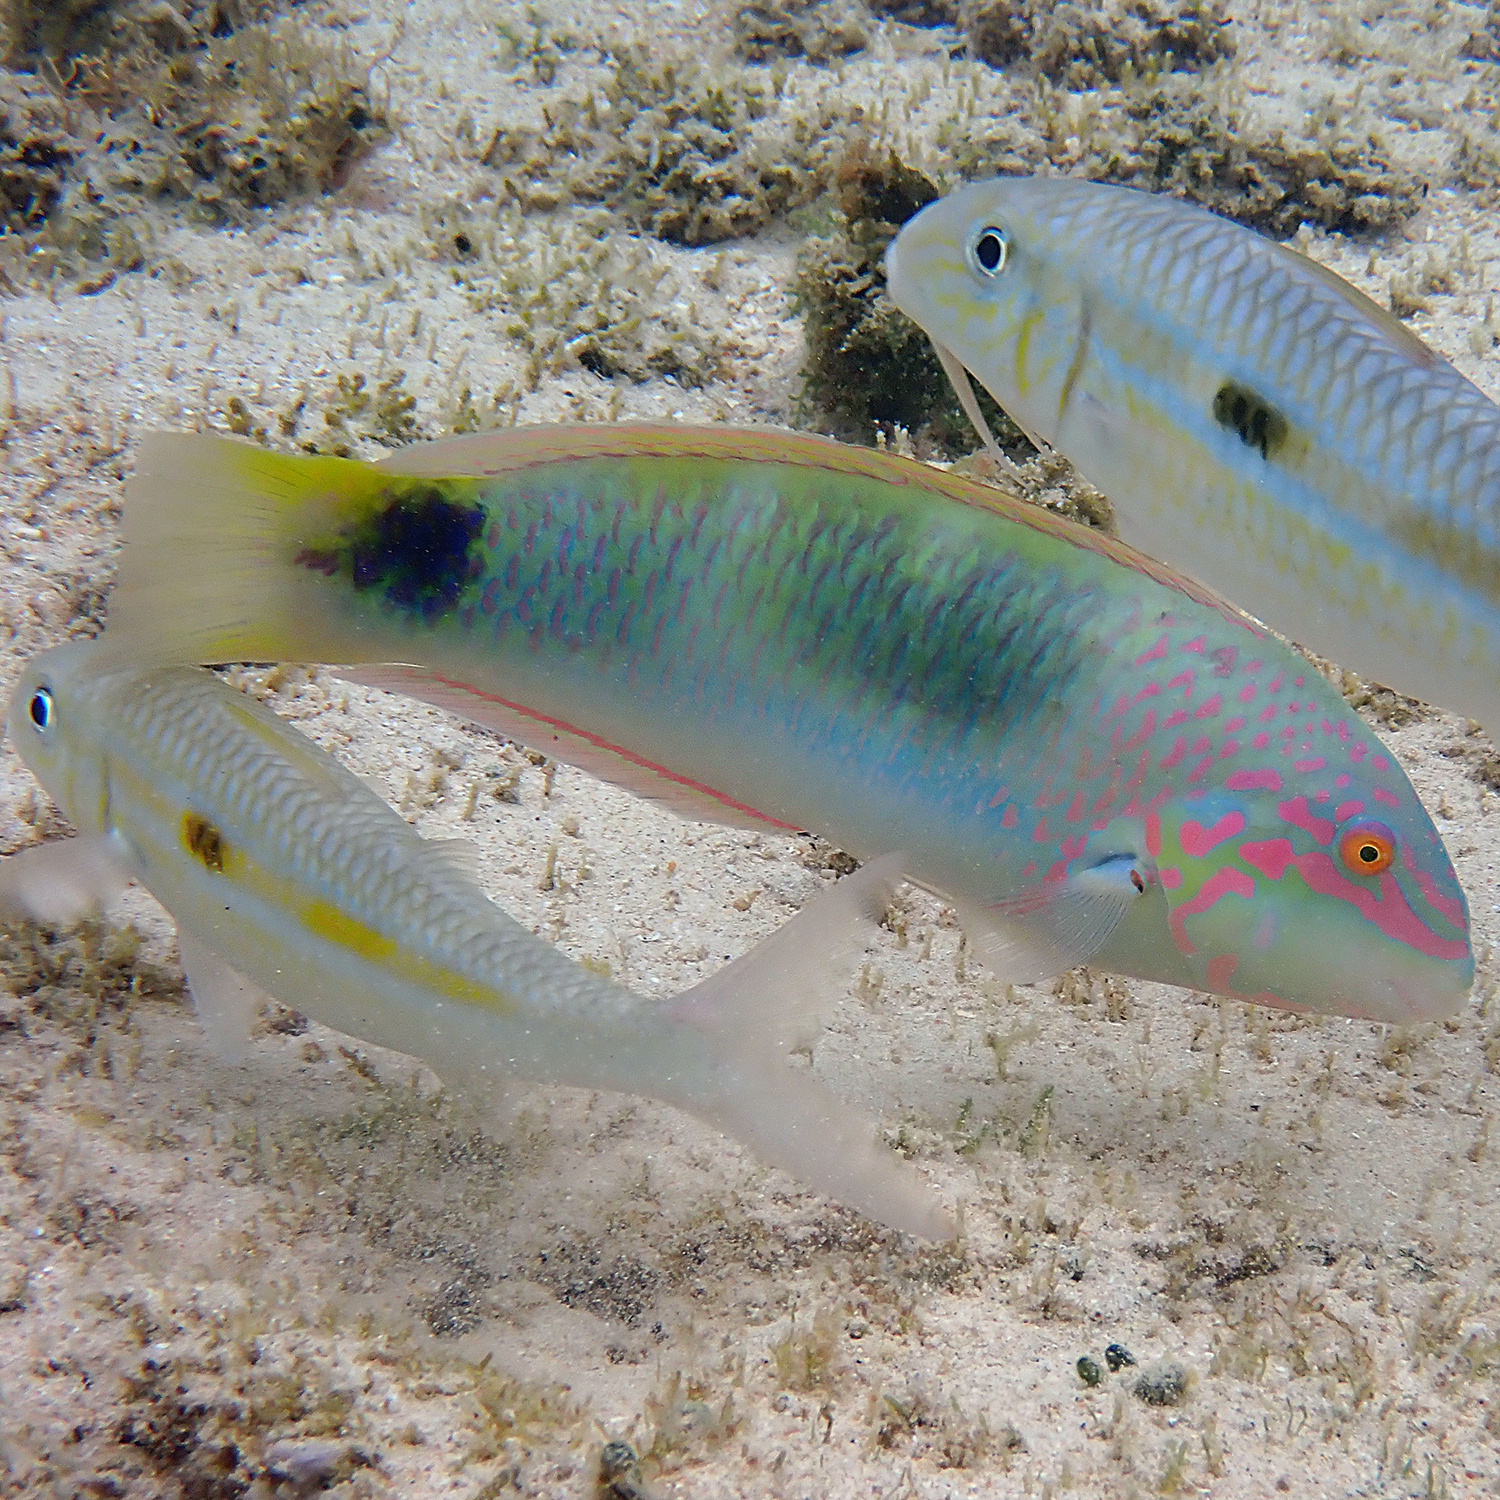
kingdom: Animalia
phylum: Chordata
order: Perciformes
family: Labridae
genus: Halichoeres
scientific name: Halichoeres trimaculatus
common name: Three-spot wrasse
